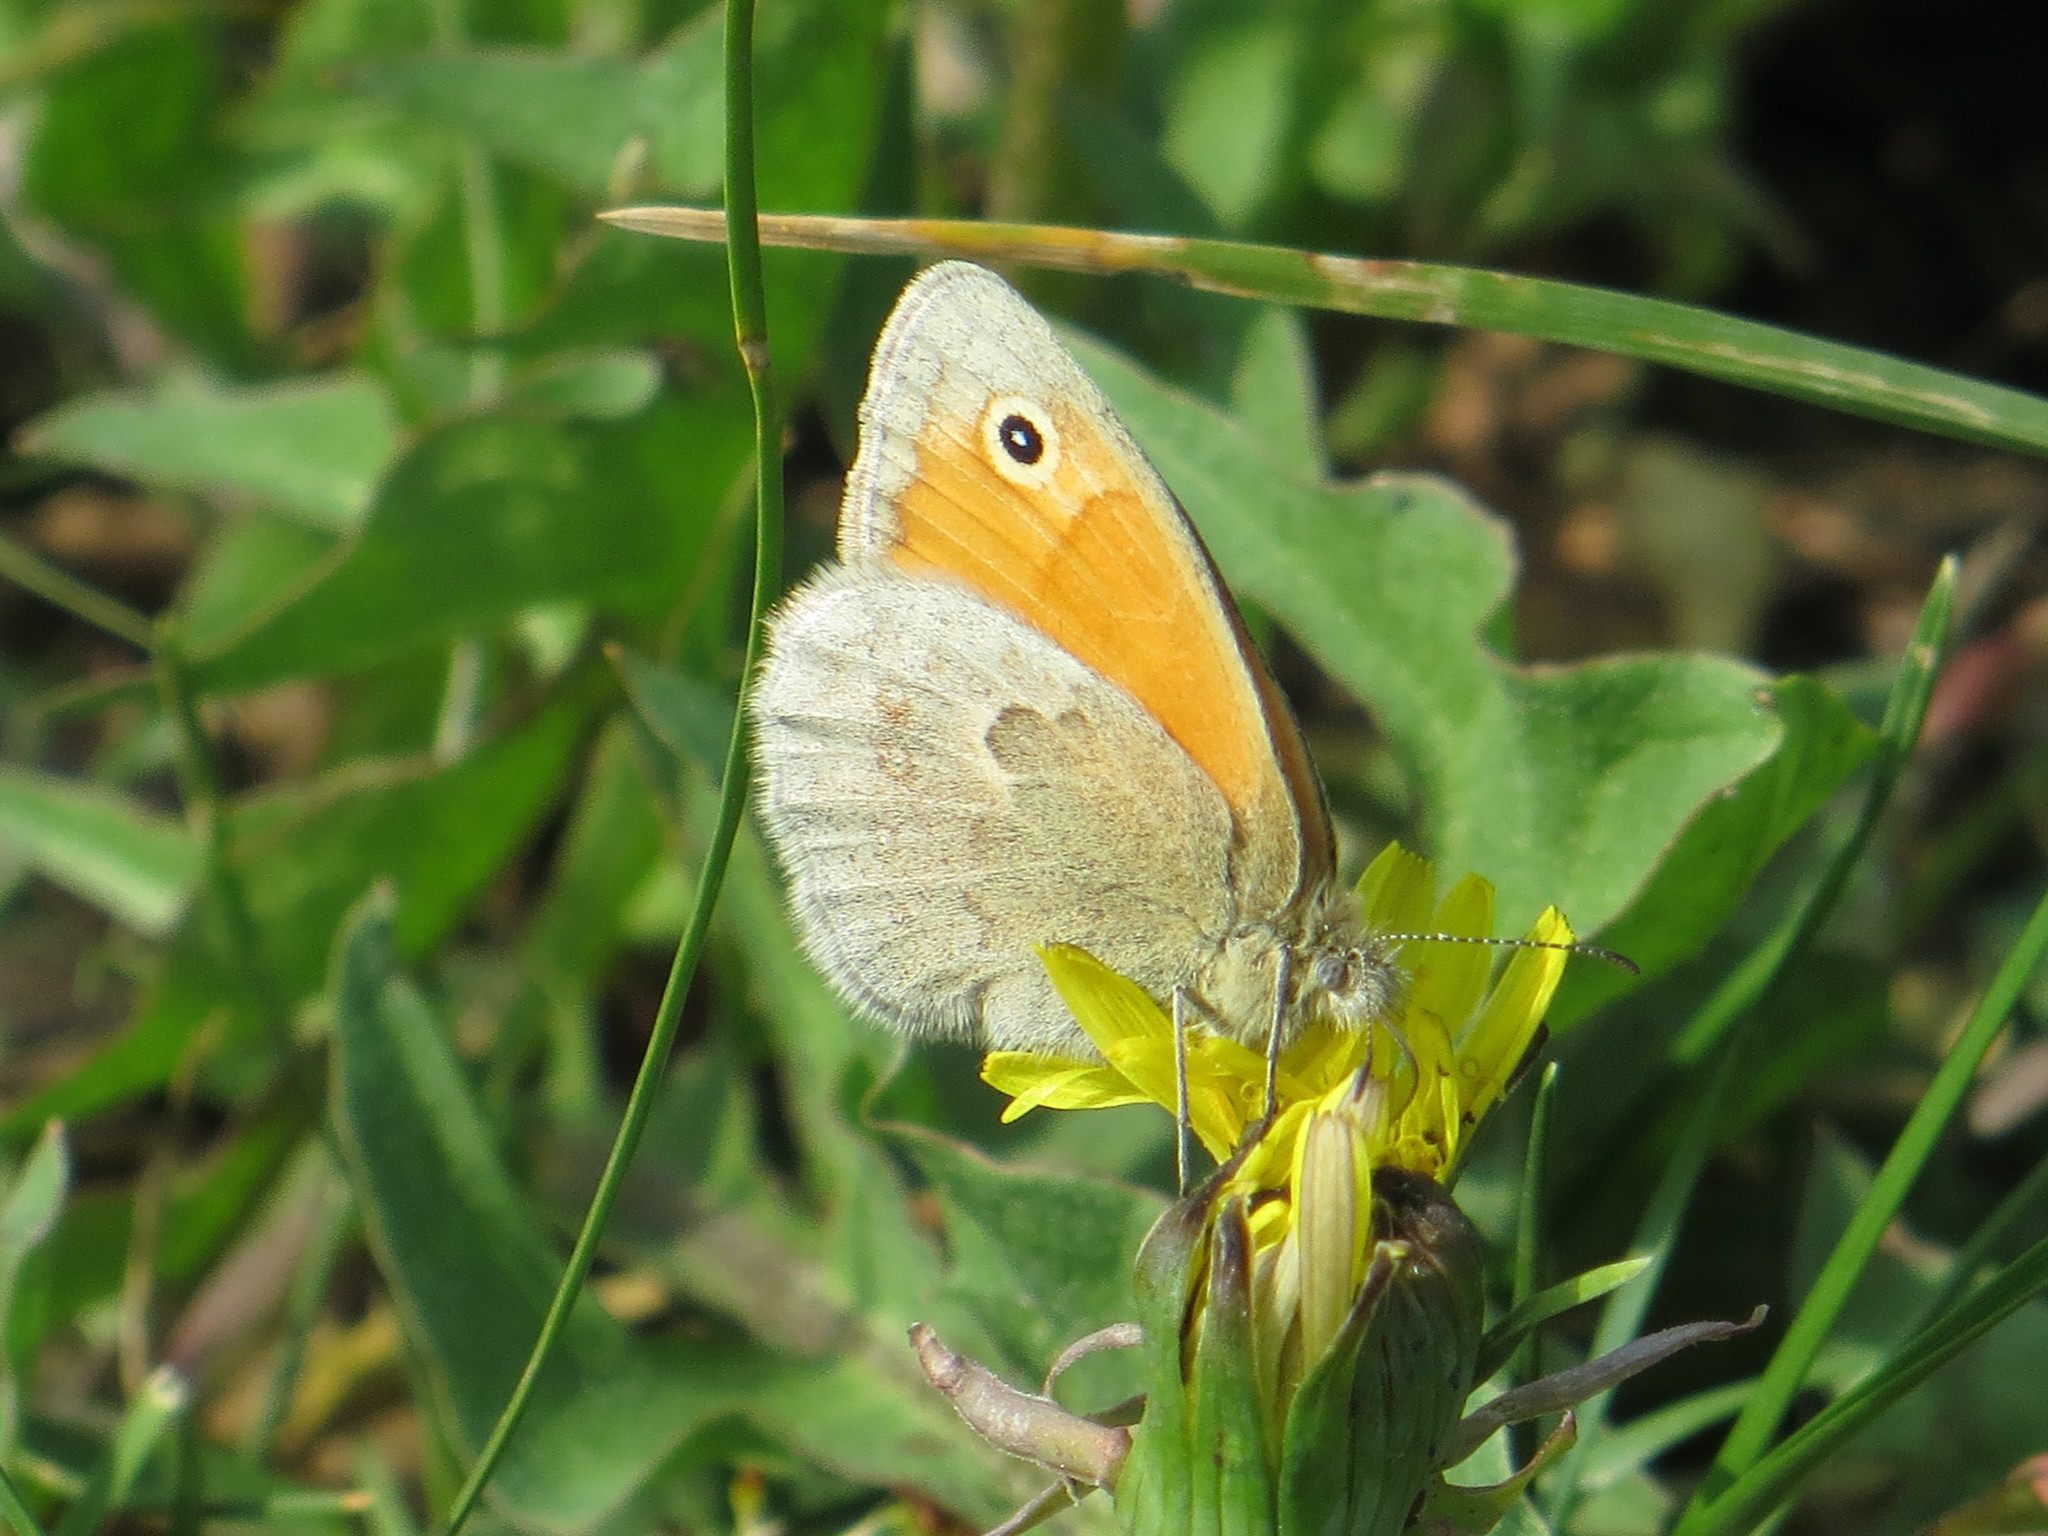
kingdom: Animalia
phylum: Arthropoda
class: Insecta
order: Lepidoptera
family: Nymphalidae
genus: Coenonympha
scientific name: Coenonympha pamphilus
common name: Small heath
